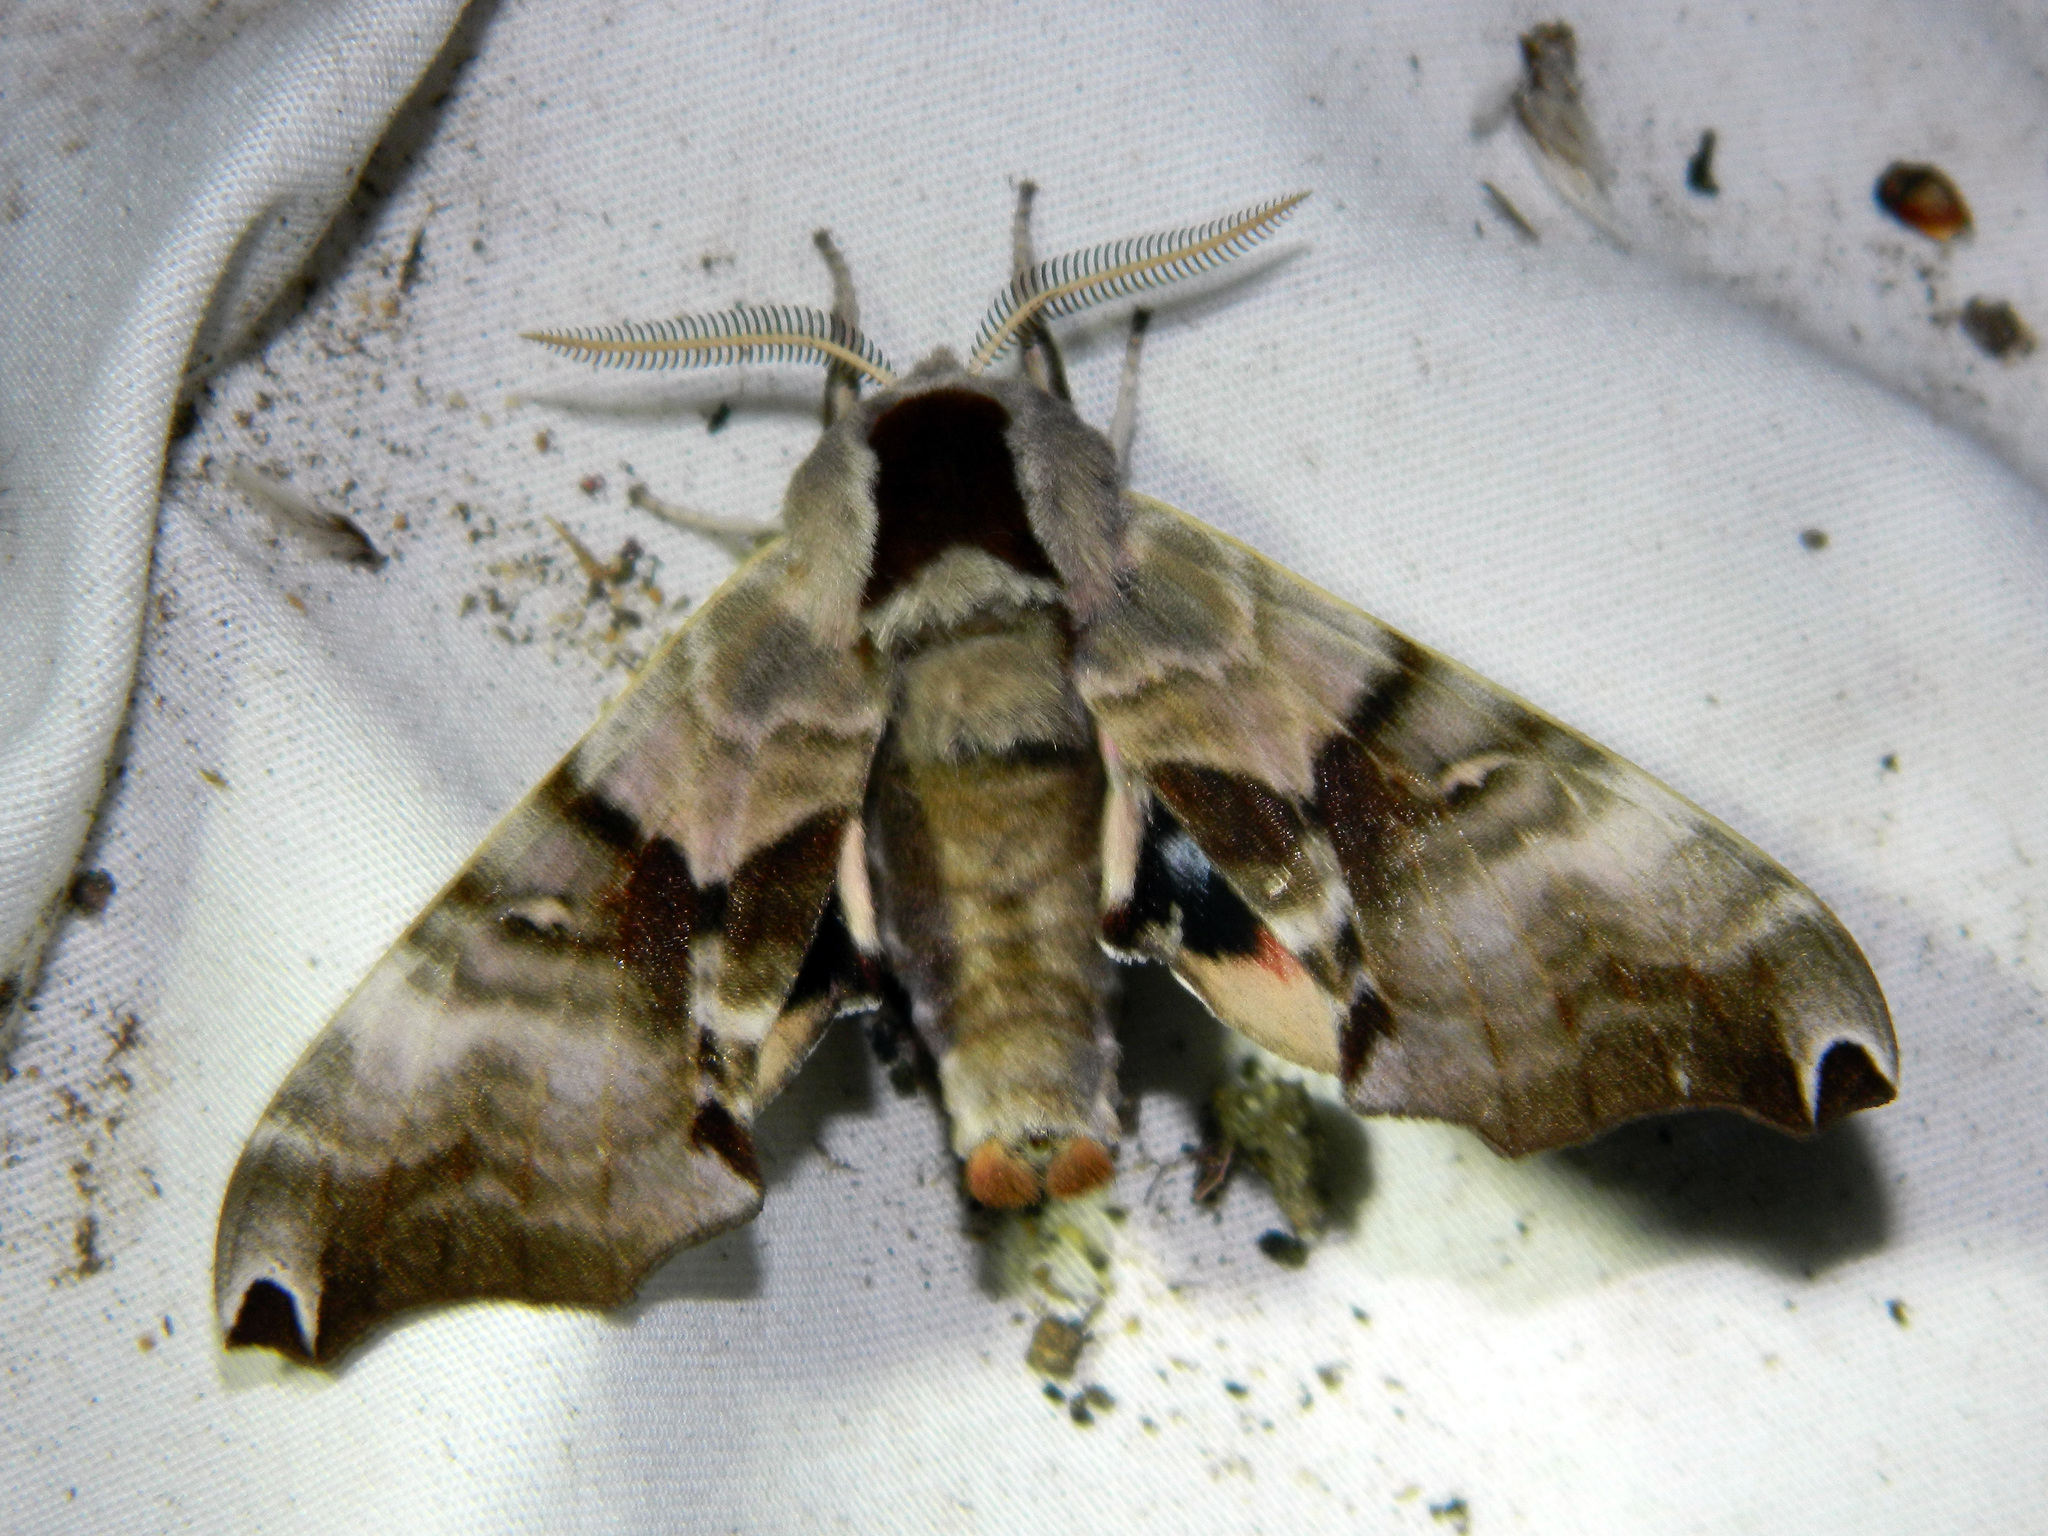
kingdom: Animalia
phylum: Arthropoda
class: Insecta
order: Lepidoptera
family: Sphingidae
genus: Smerinthus
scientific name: Smerinthus jamaicensis
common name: Twin spotted sphinx
